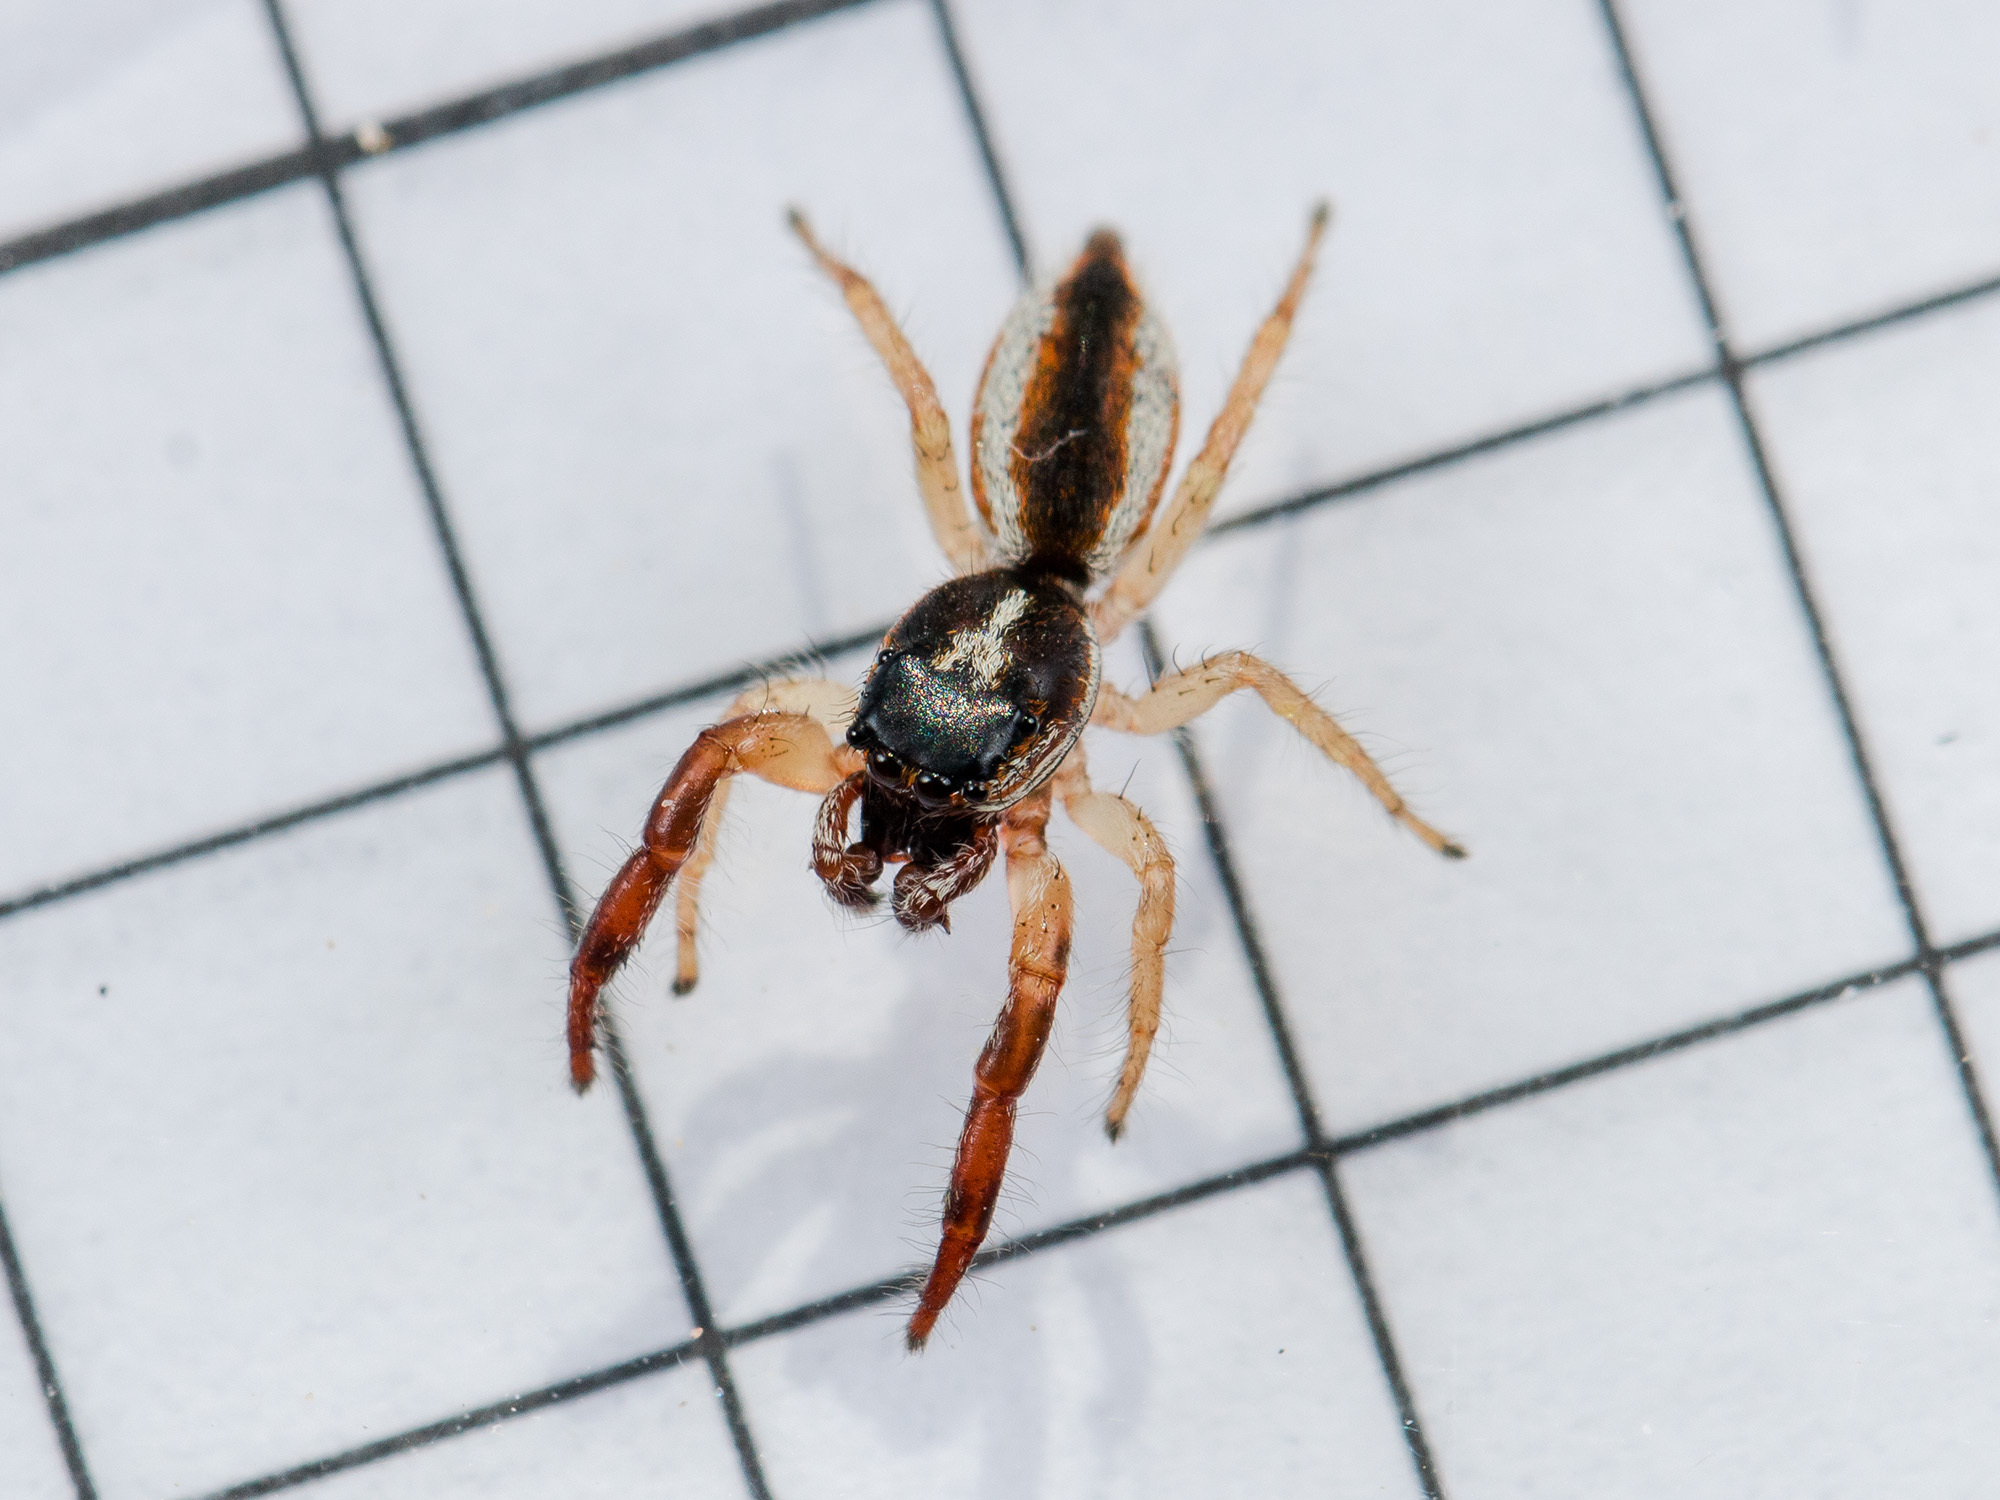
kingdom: Animalia
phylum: Arthropoda
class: Arachnida
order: Araneae
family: Salticidae
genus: Rudakius
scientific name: Rudakius cinctus
